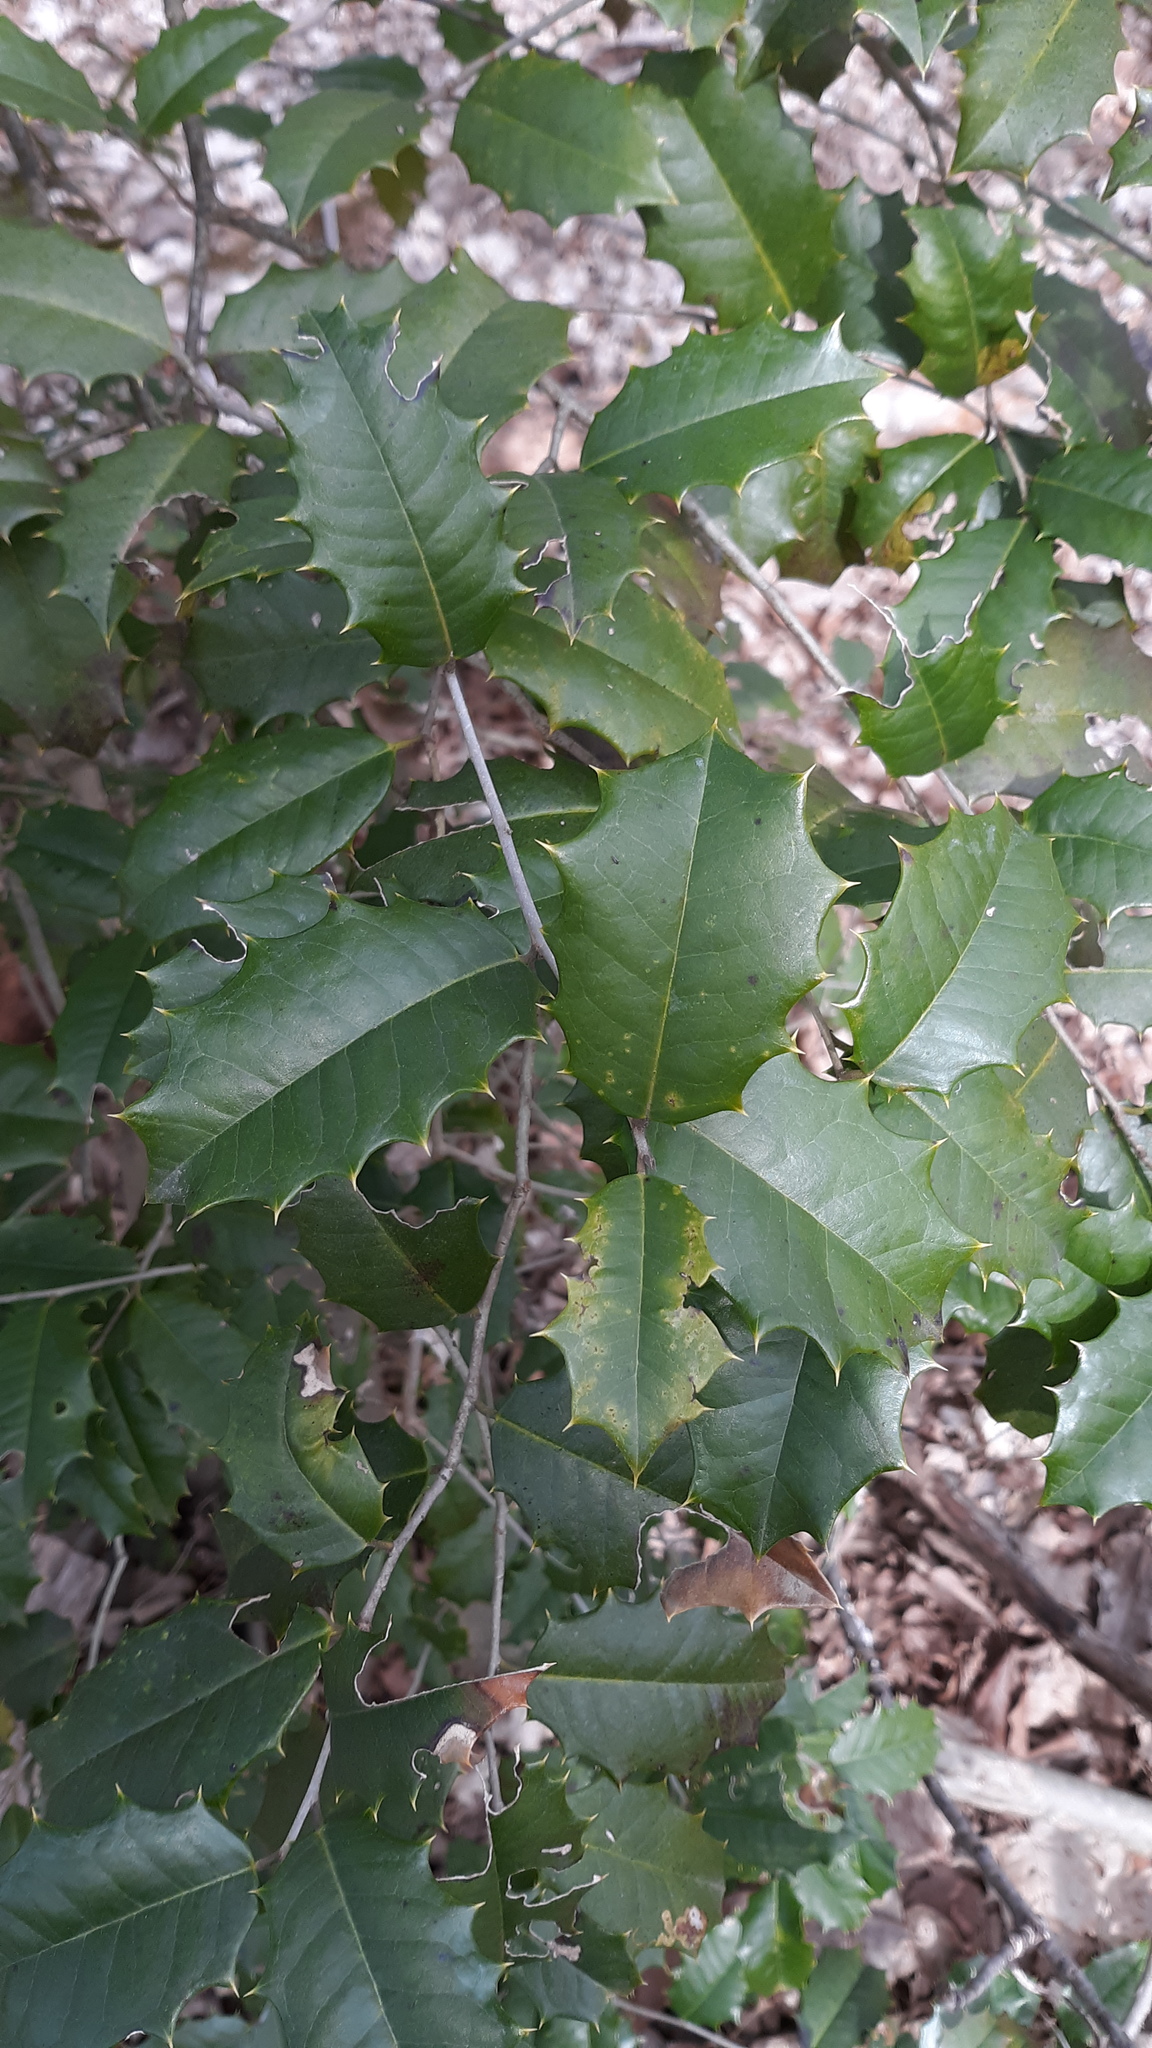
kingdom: Plantae
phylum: Tracheophyta
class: Magnoliopsida
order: Aquifoliales
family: Aquifoliaceae
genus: Ilex
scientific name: Ilex opaca
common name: American holly
